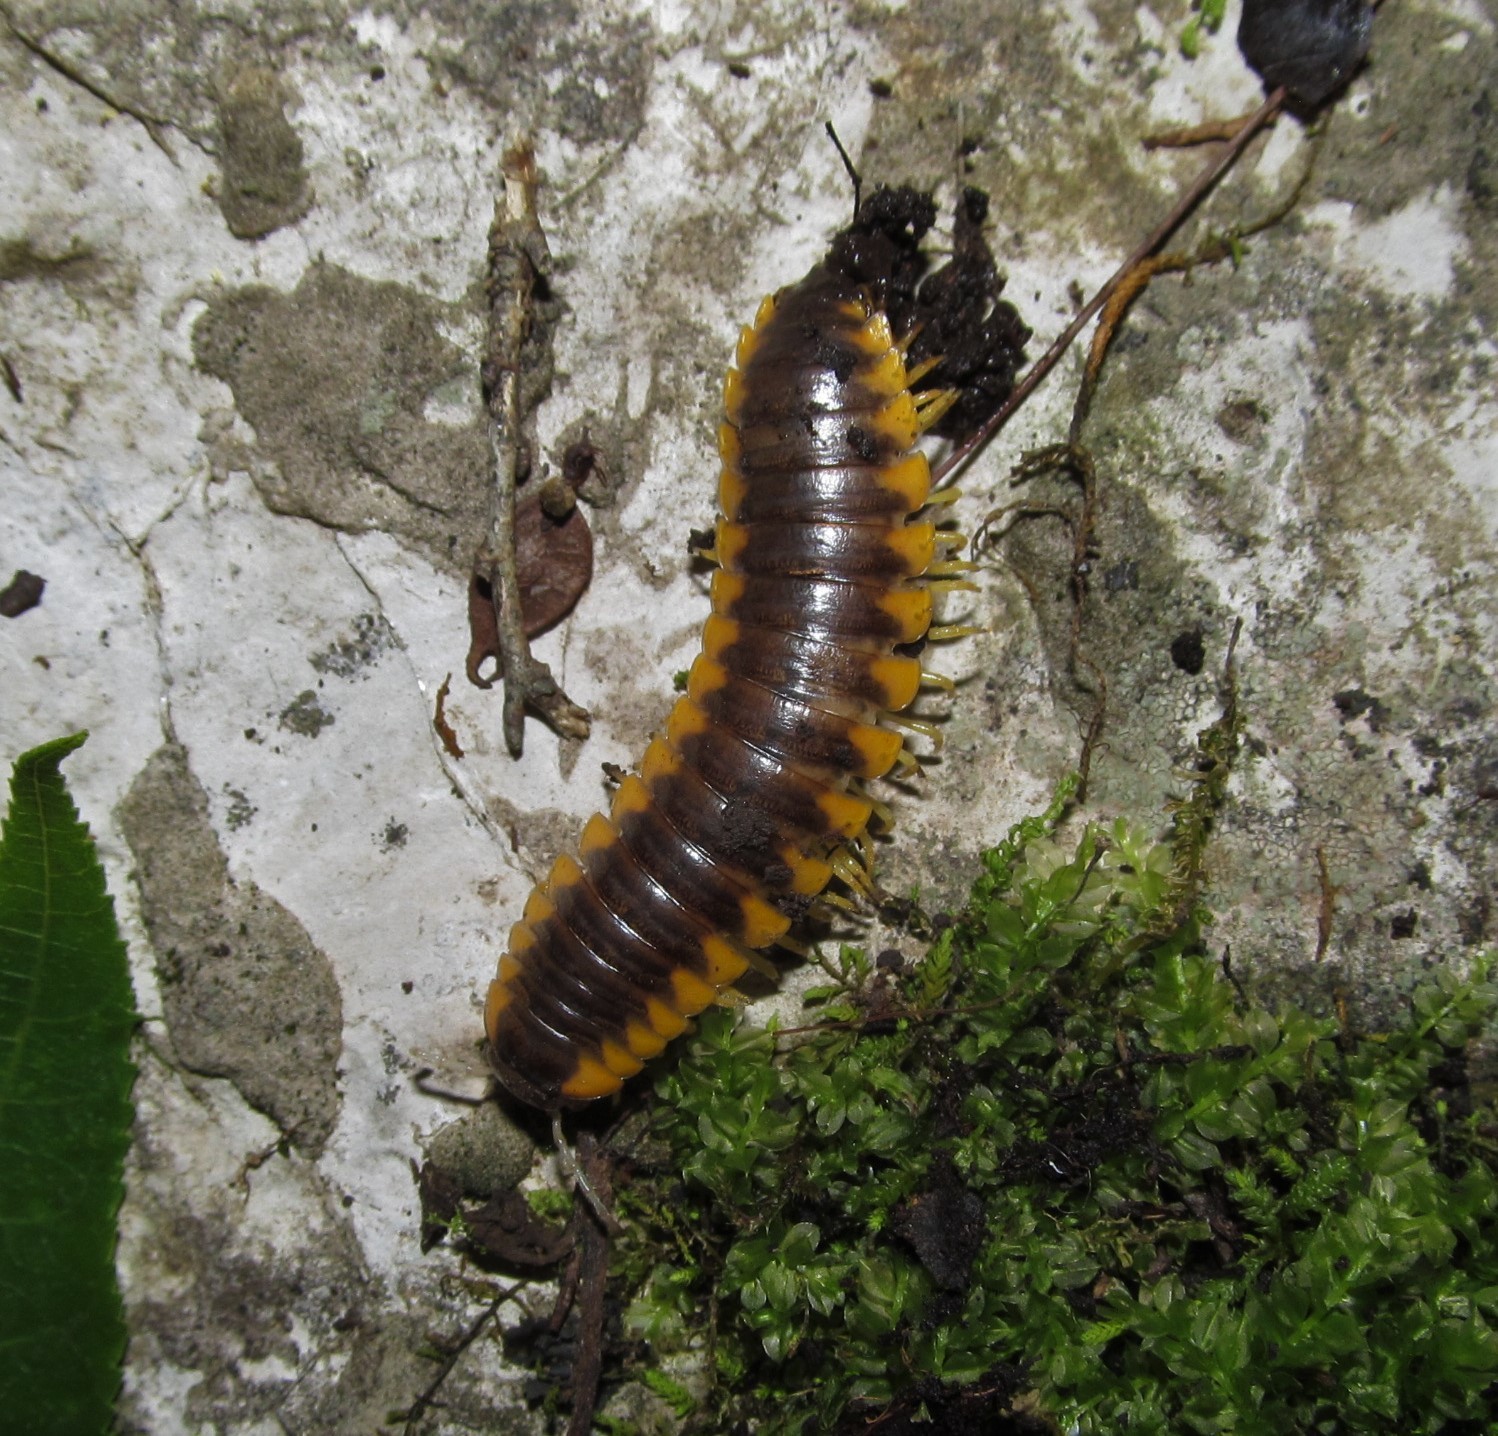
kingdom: Animalia
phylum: Arthropoda
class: Diplopoda
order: Polydesmida
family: Xystodesmidae
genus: Brachoria
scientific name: Brachoria glendalea
